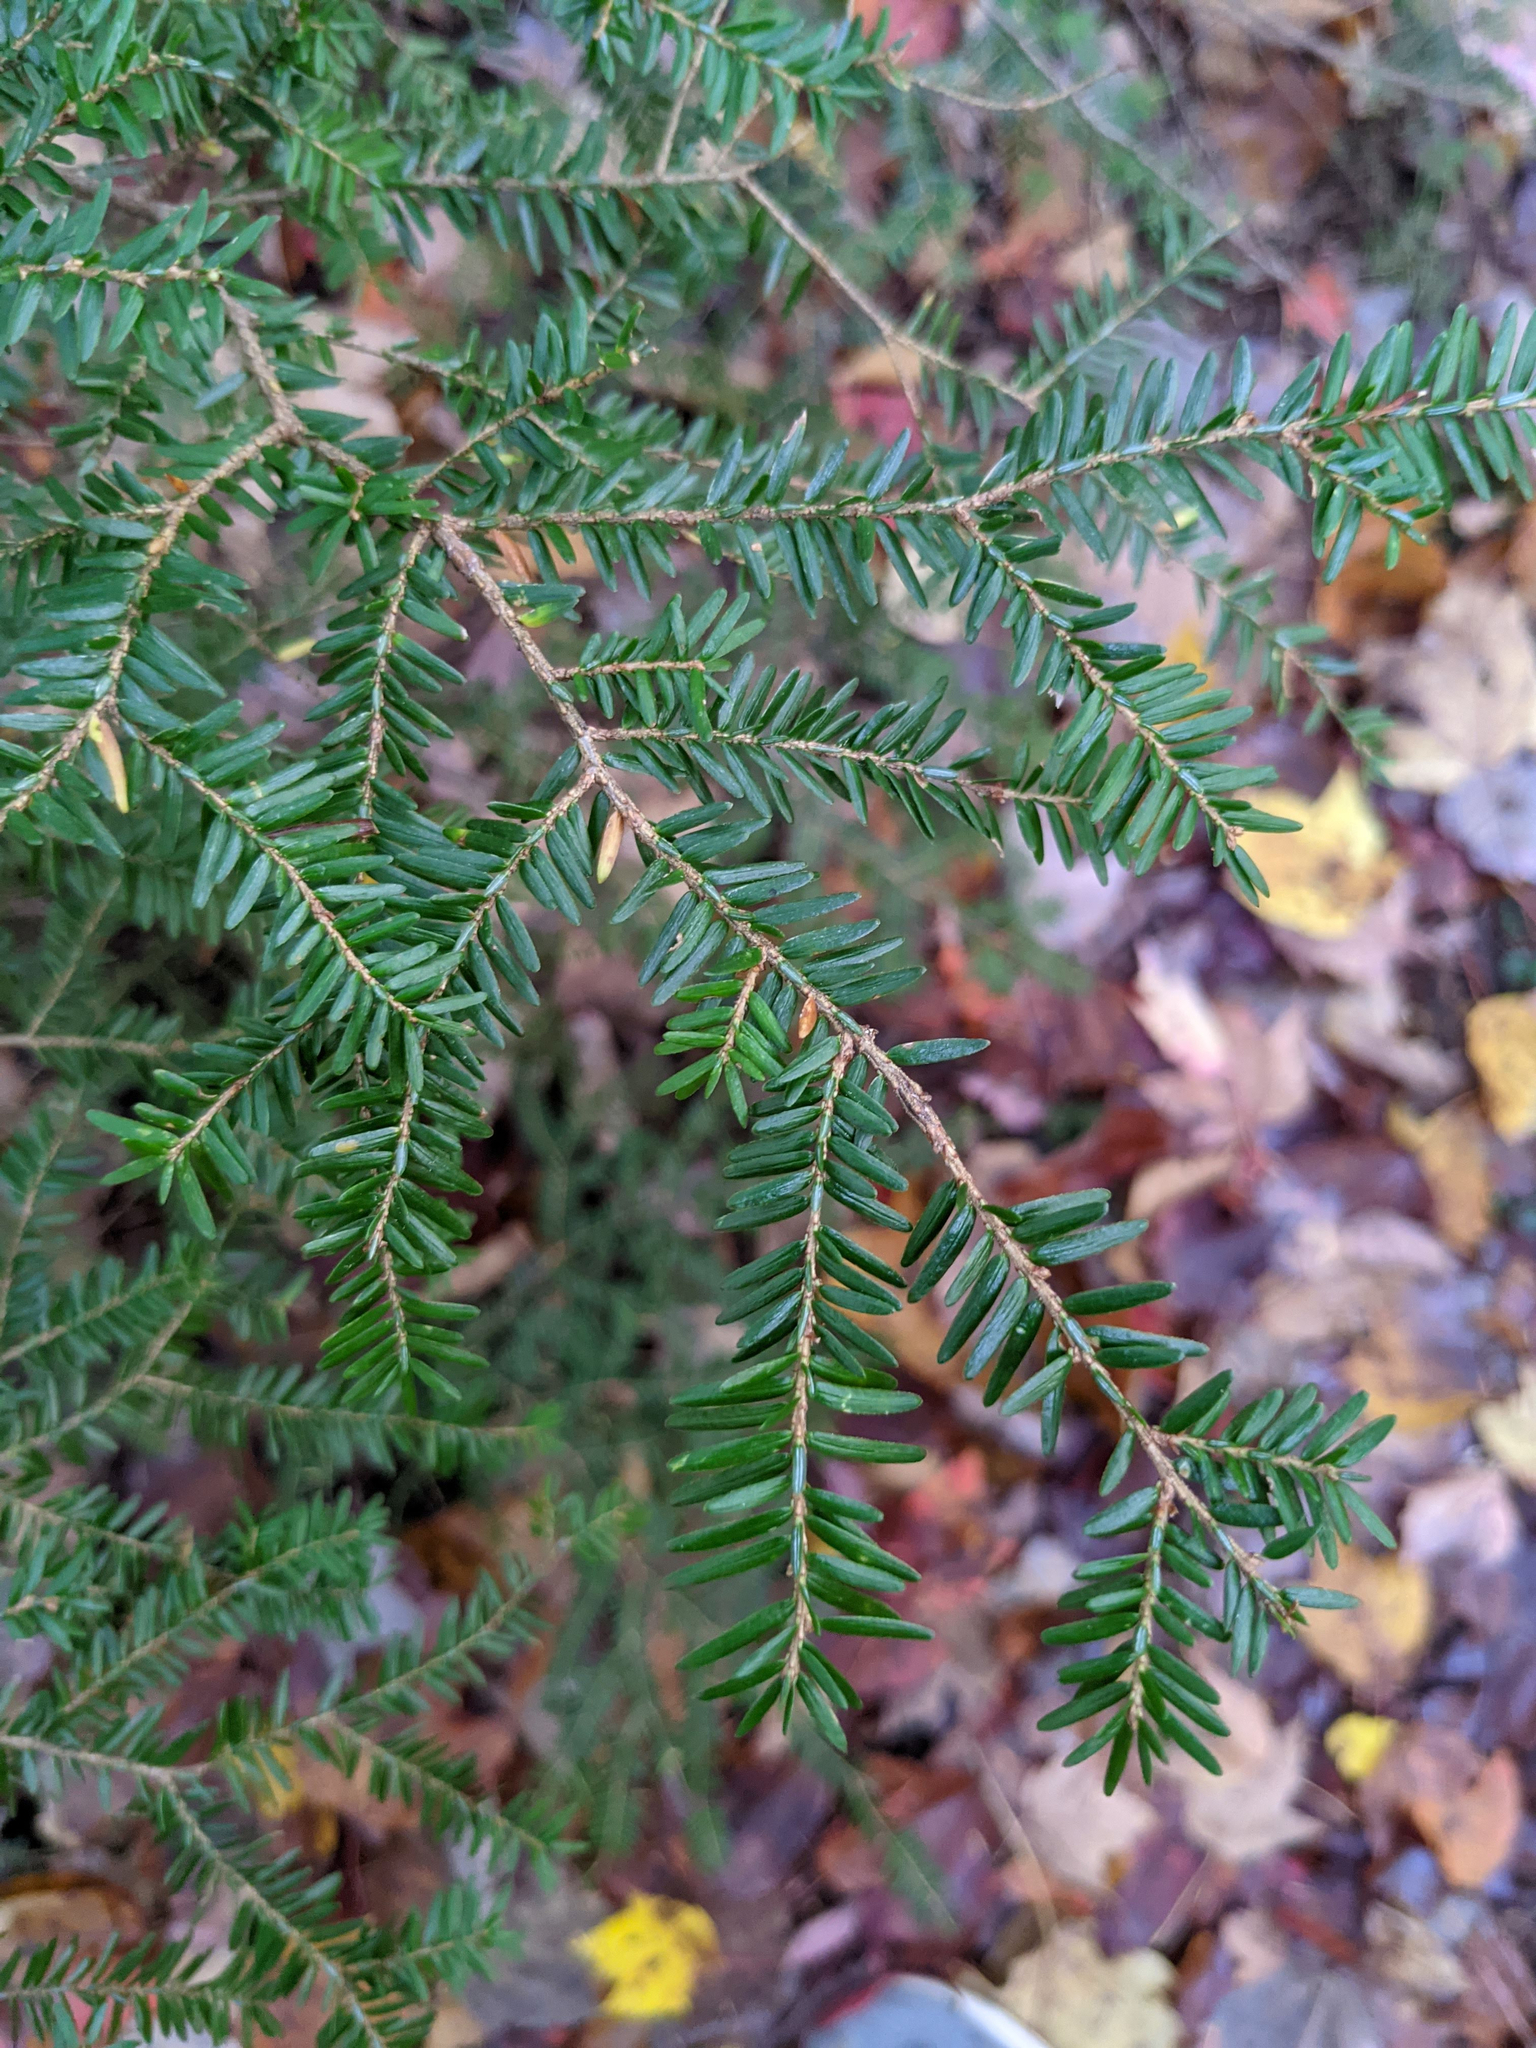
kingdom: Plantae
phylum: Tracheophyta
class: Pinopsida
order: Pinales
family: Pinaceae
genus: Tsuga
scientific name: Tsuga canadensis
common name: Eastern hemlock
